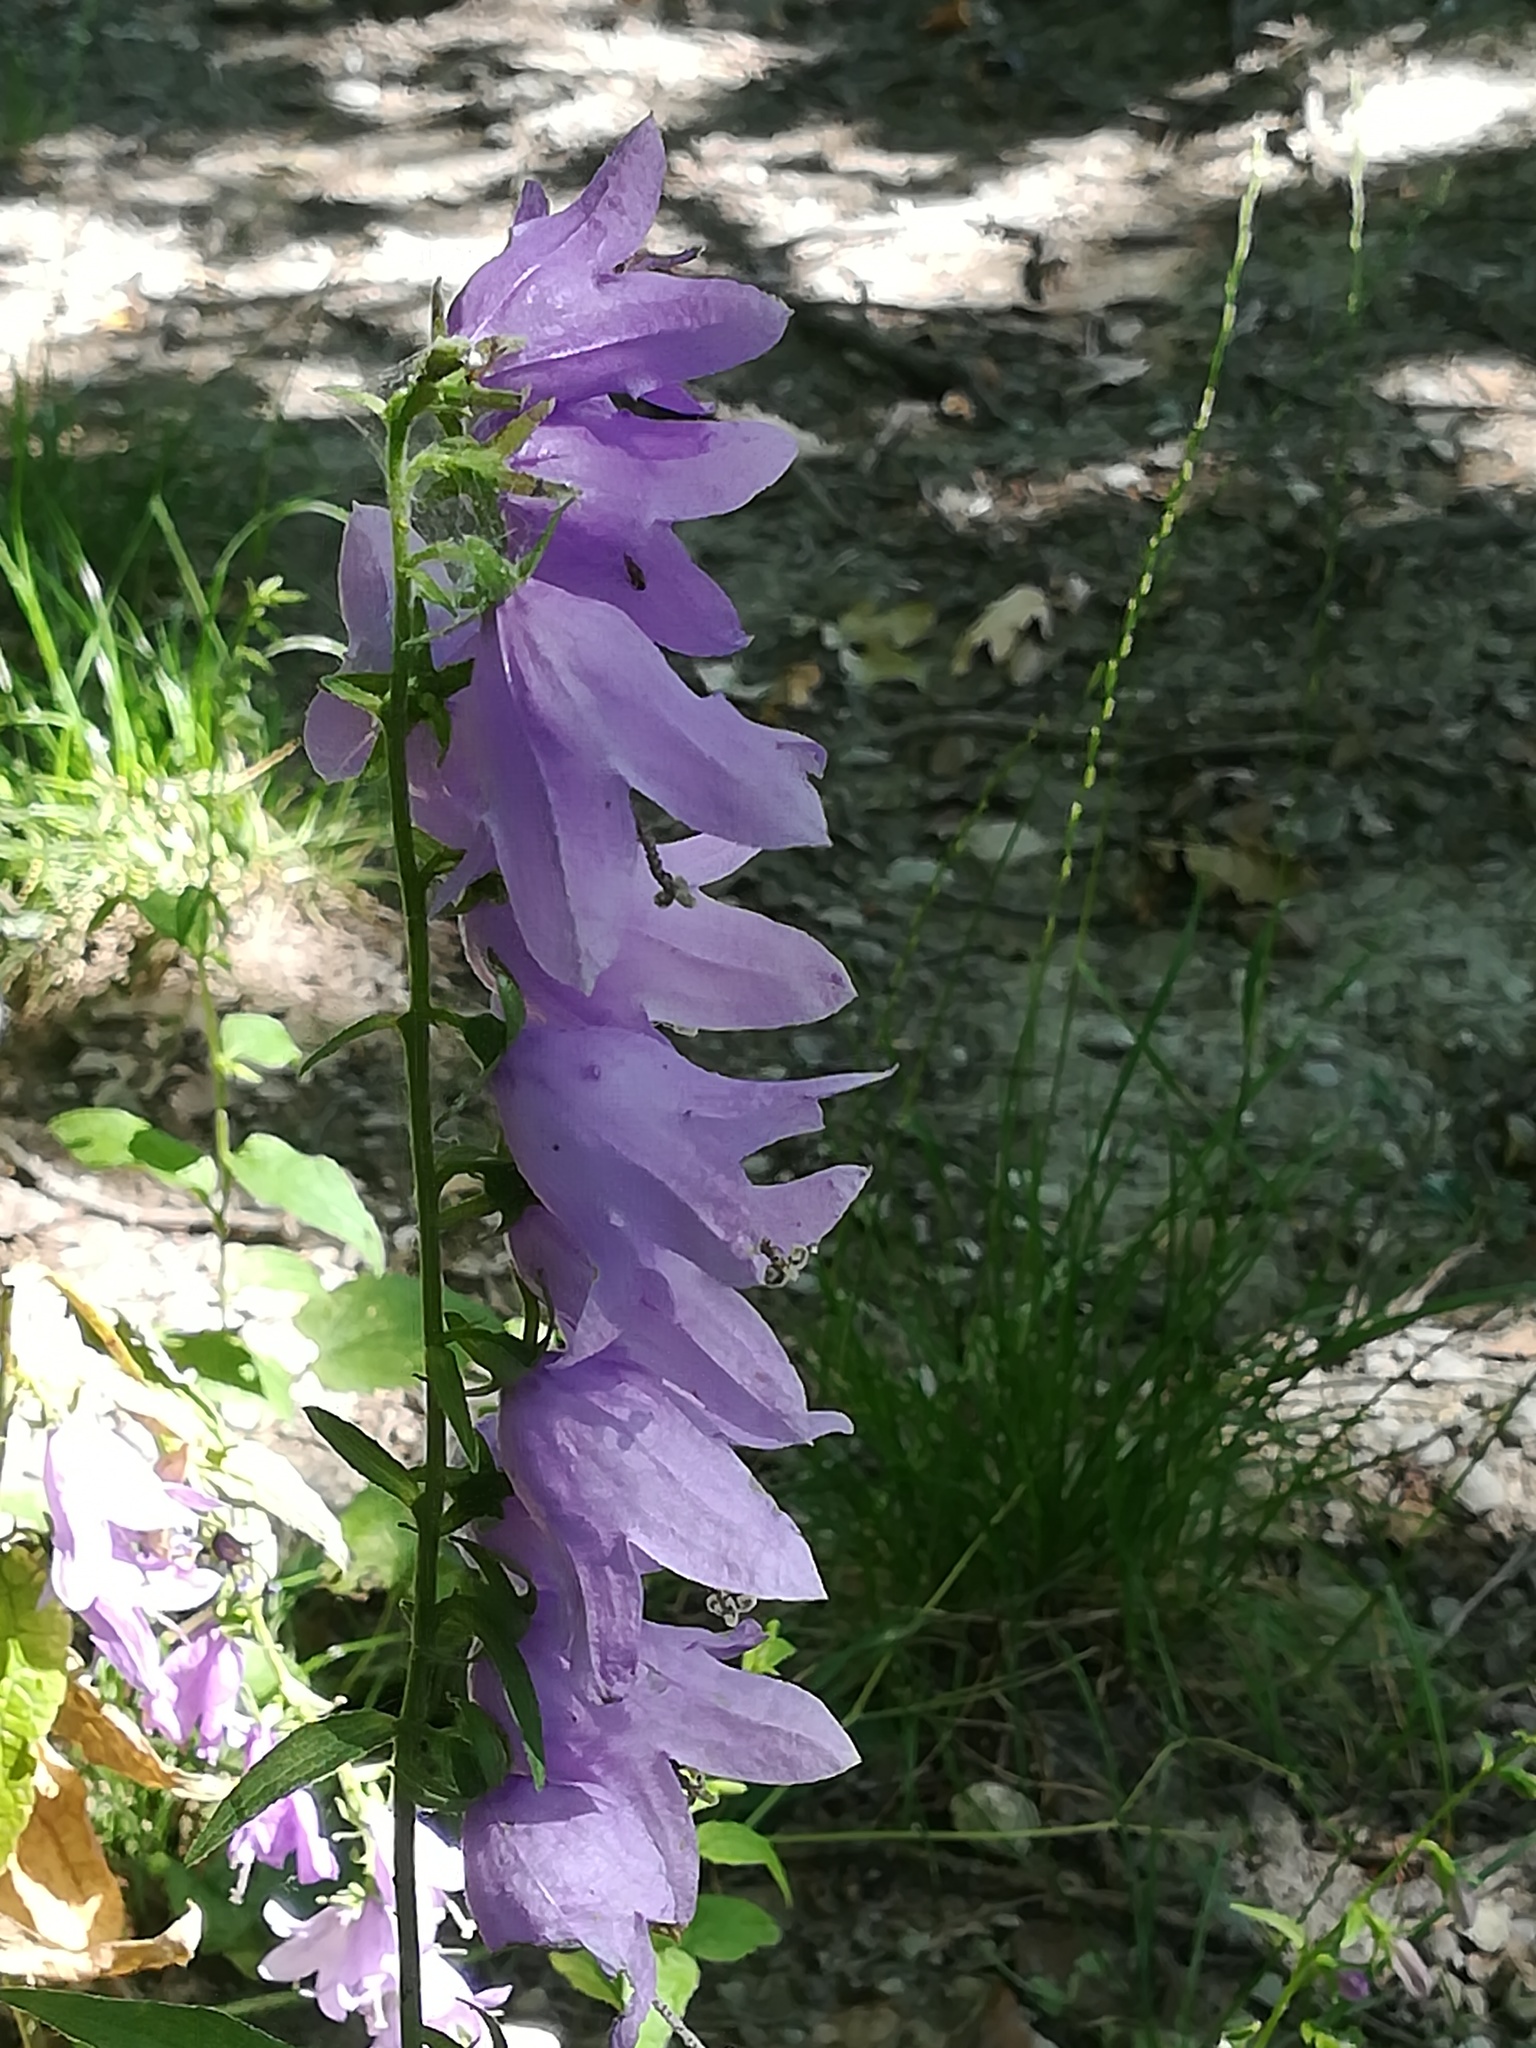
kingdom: Plantae
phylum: Tracheophyta
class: Magnoliopsida
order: Asterales
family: Campanulaceae
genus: Campanula
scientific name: Campanula rapunculoides
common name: Creeping bellflower
